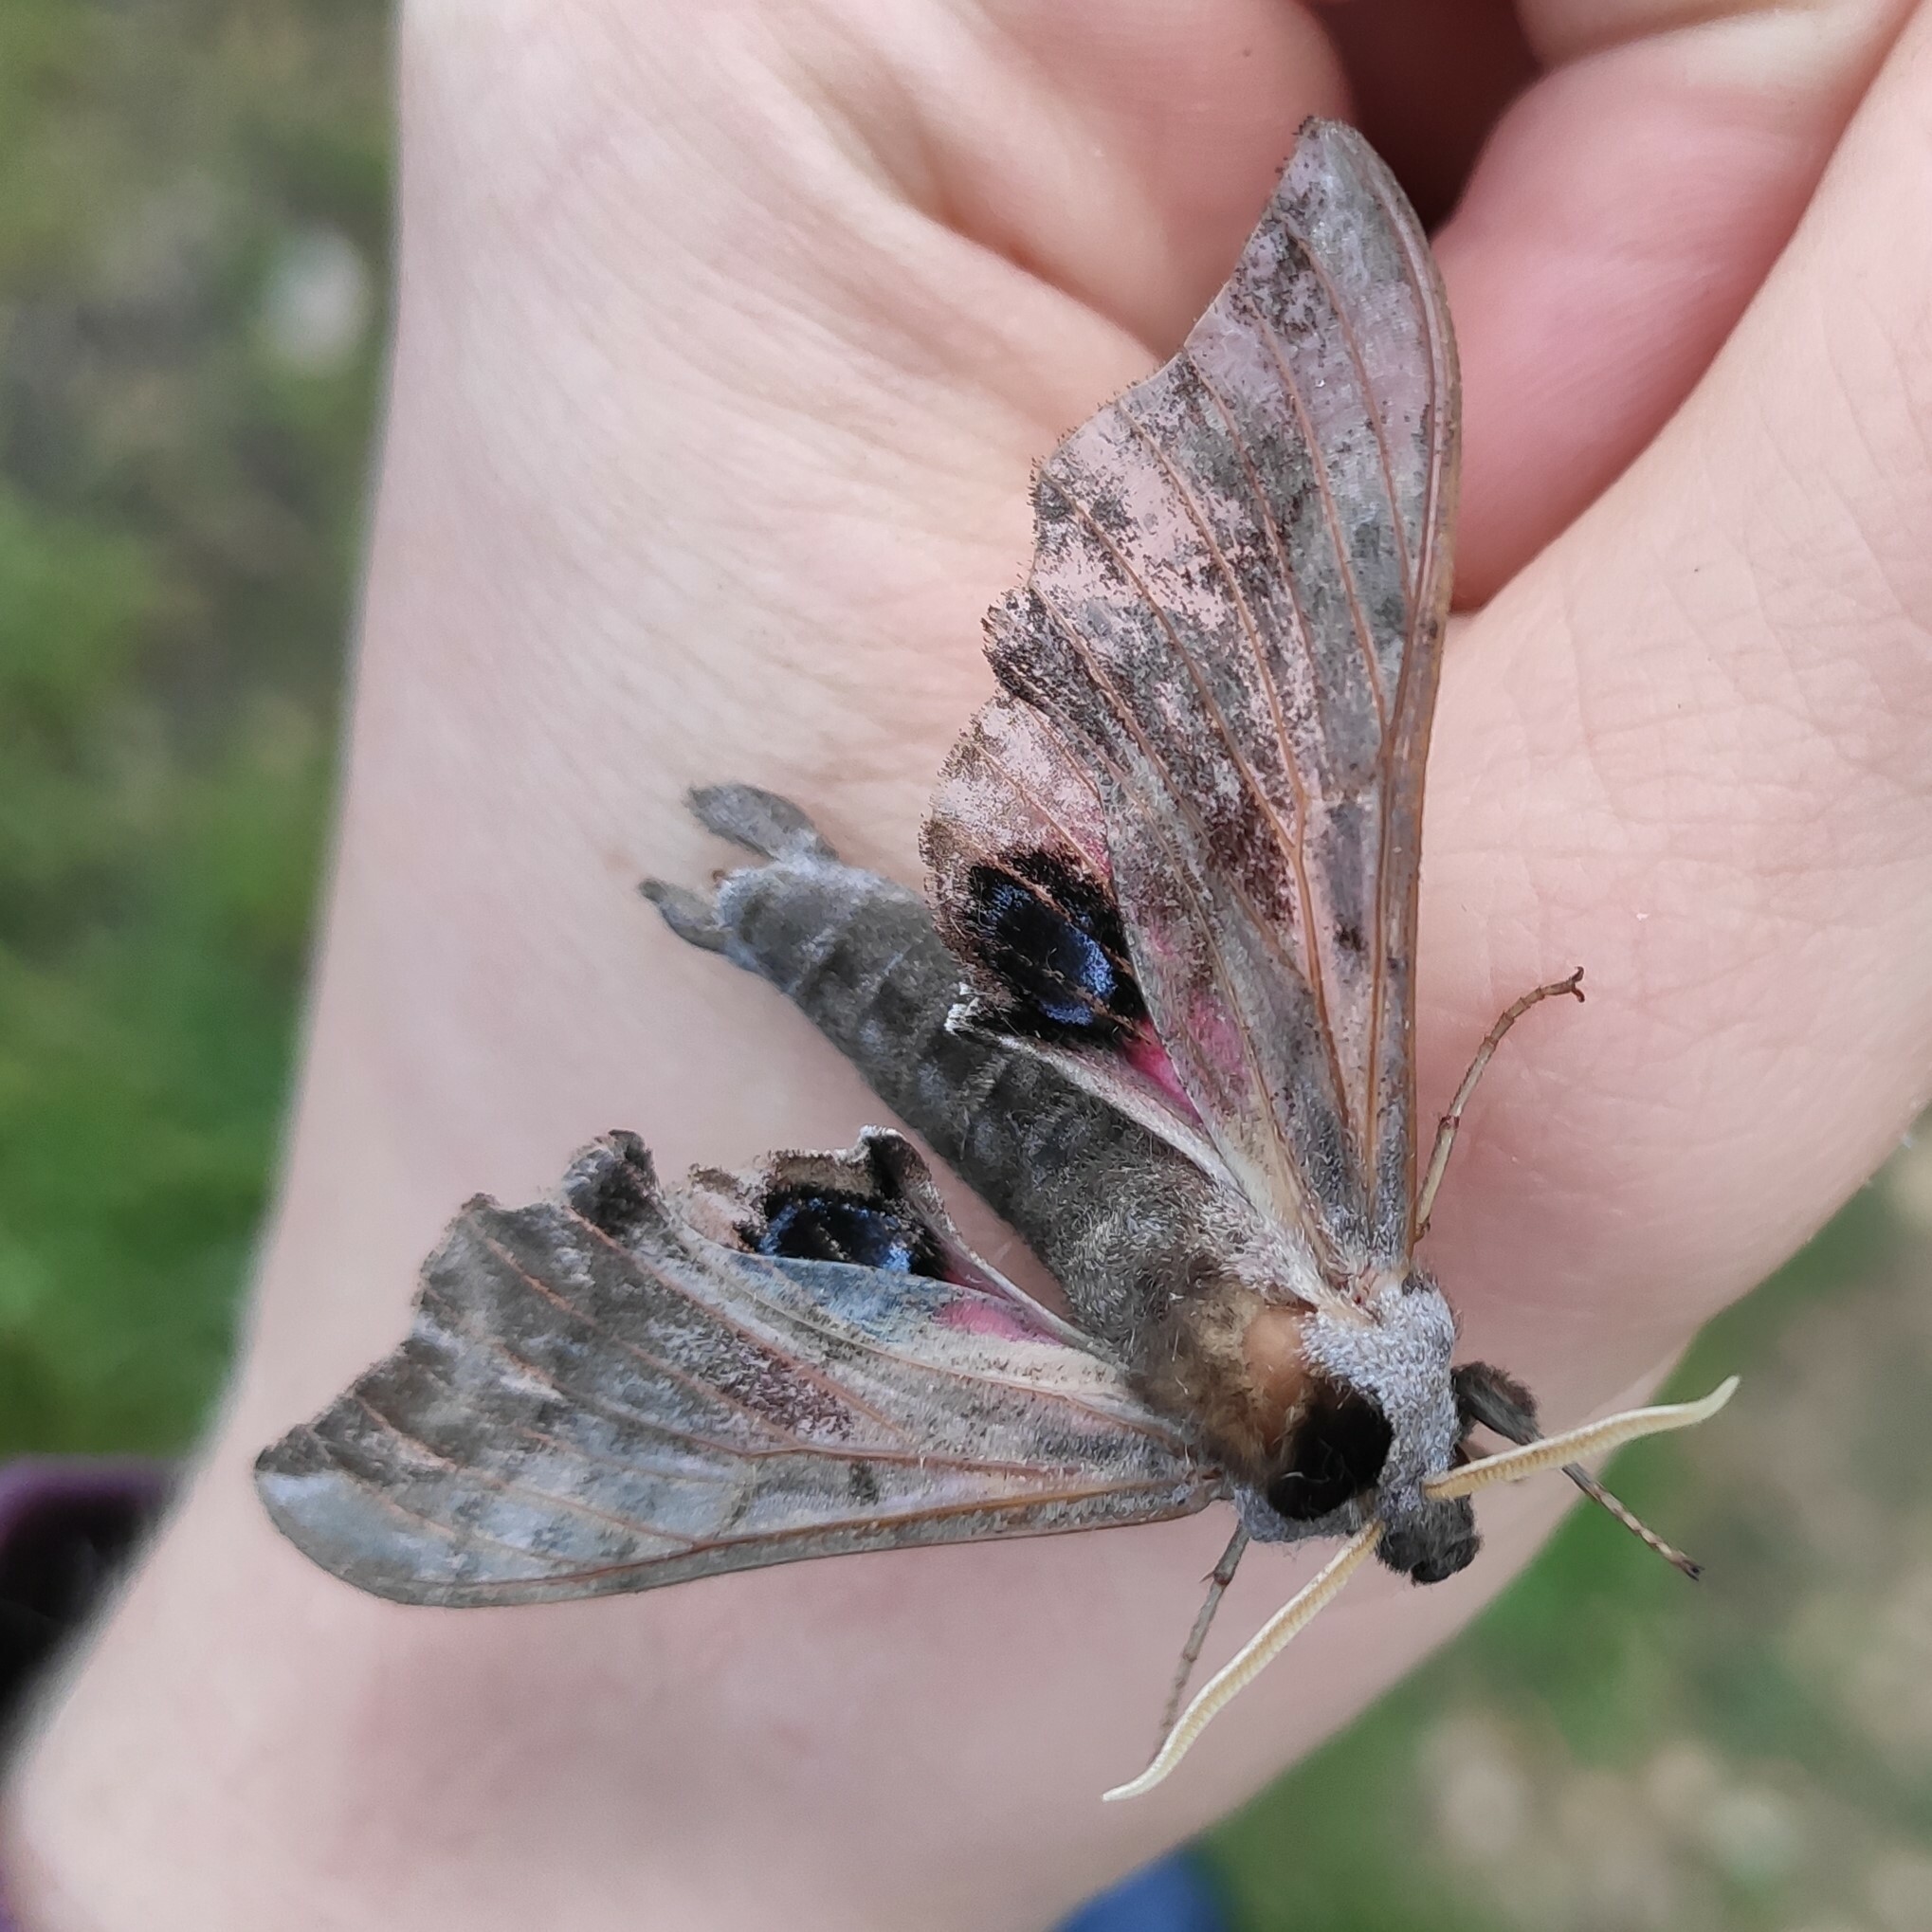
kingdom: Animalia
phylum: Arthropoda
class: Insecta
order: Lepidoptera
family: Sphingidae
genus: Smerinthus
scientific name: Smerinthus ocellata
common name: Eyed hawk-moth
